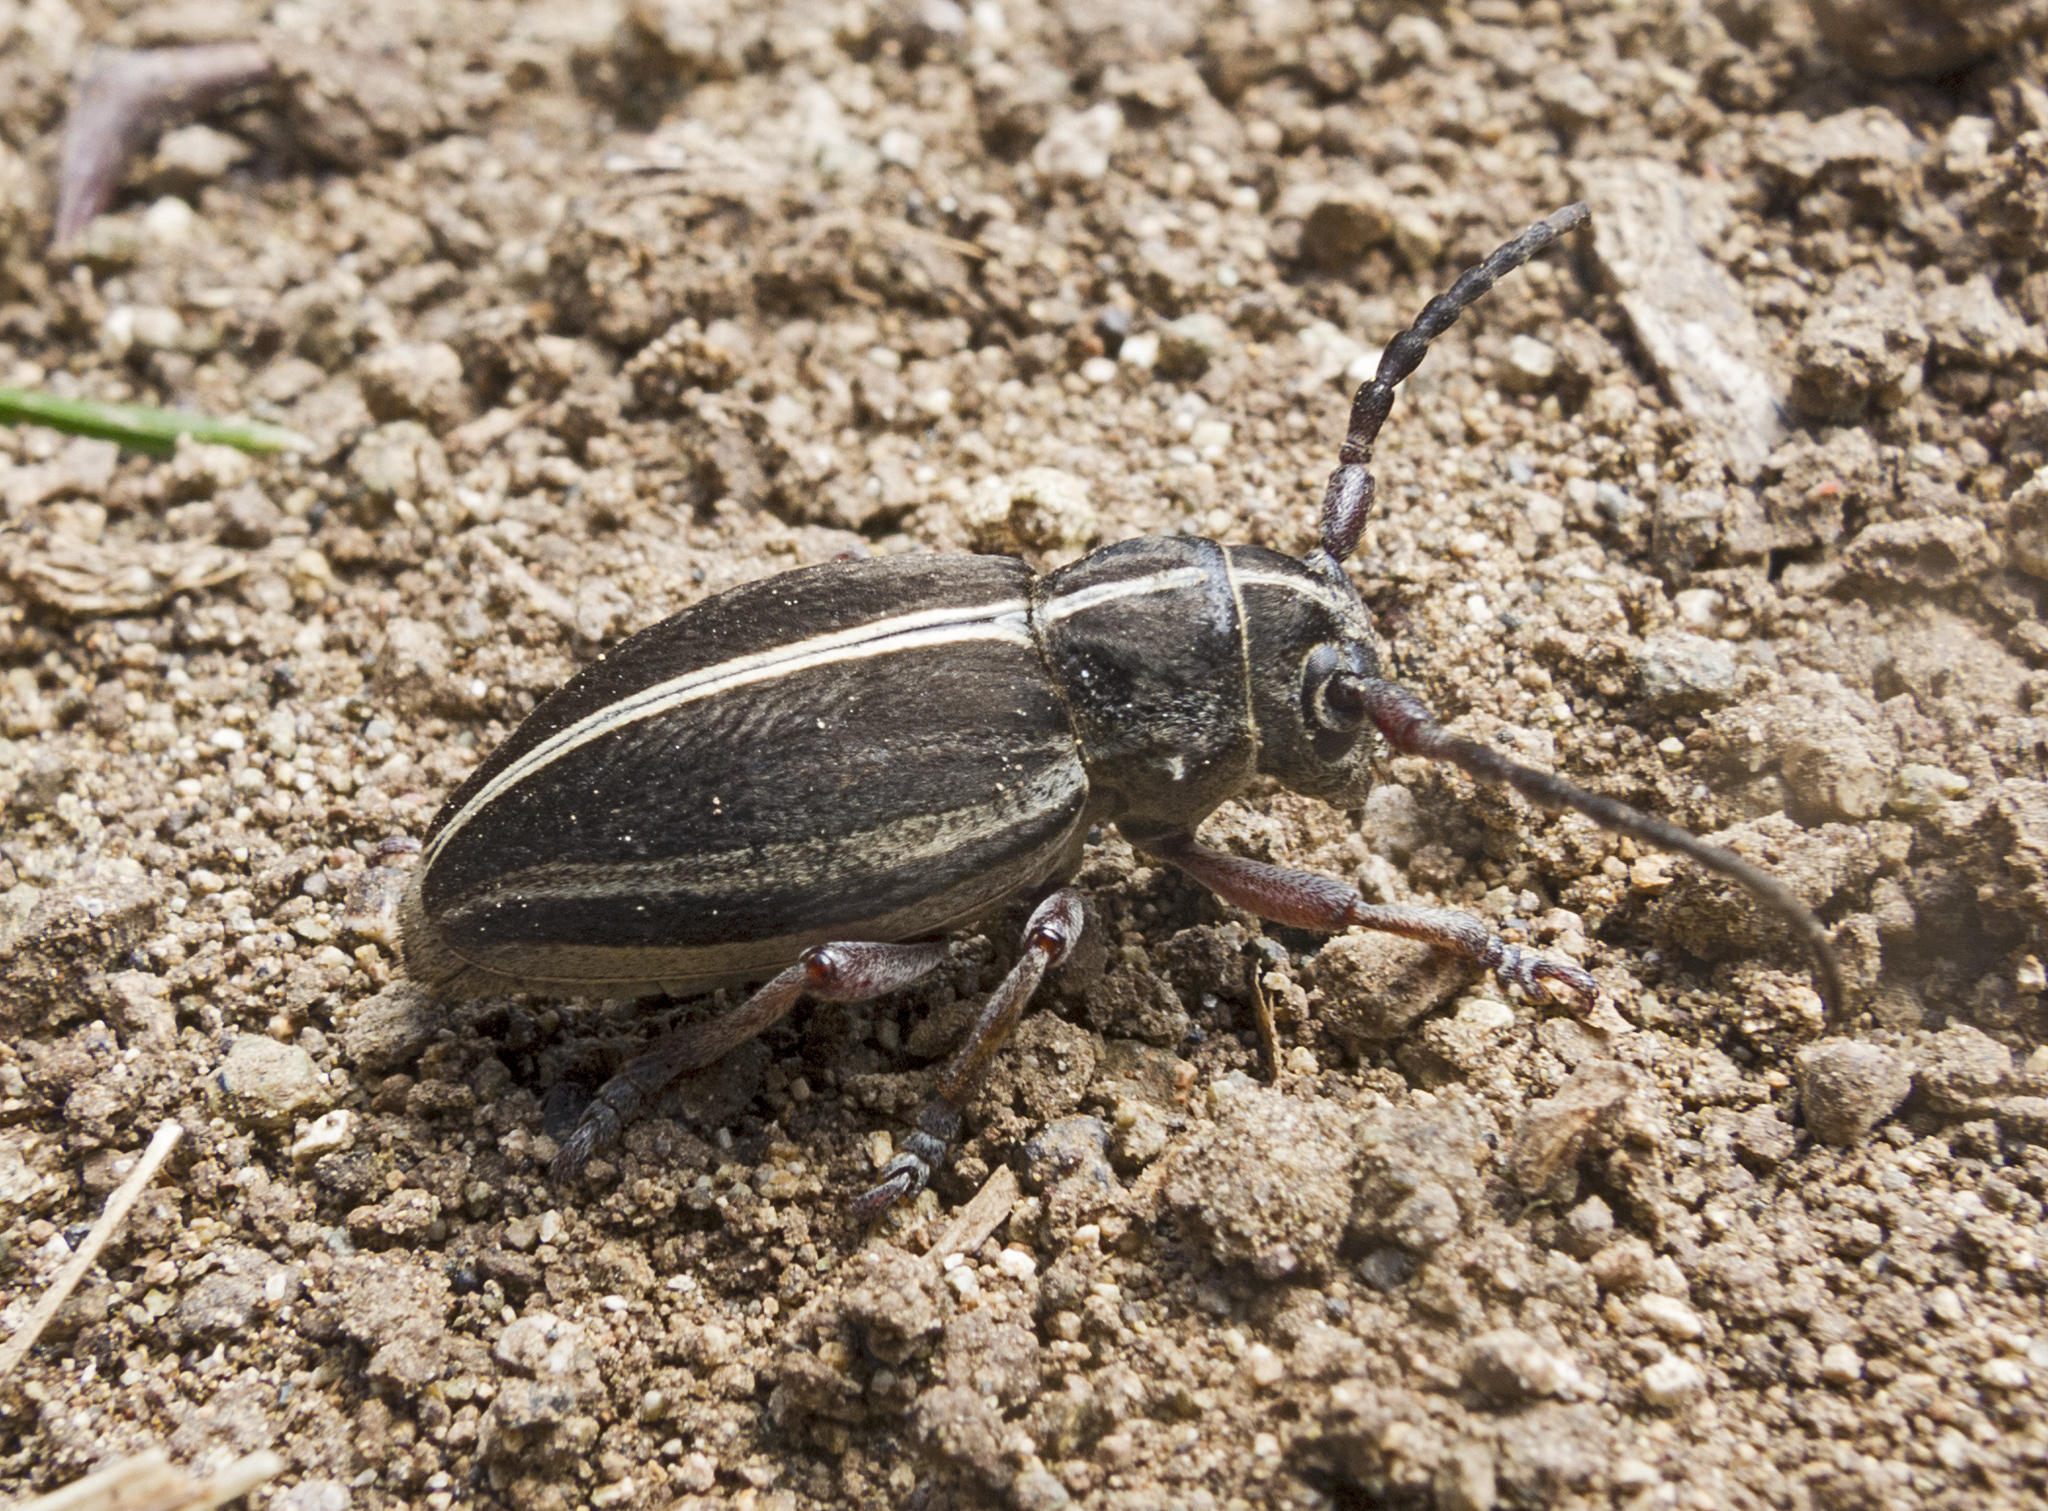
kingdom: Animalia
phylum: Arthropoda
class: Insecta
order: Coleoptera
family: Cerambycidae
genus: Dorcadion
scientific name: Dorcadion tauricum
